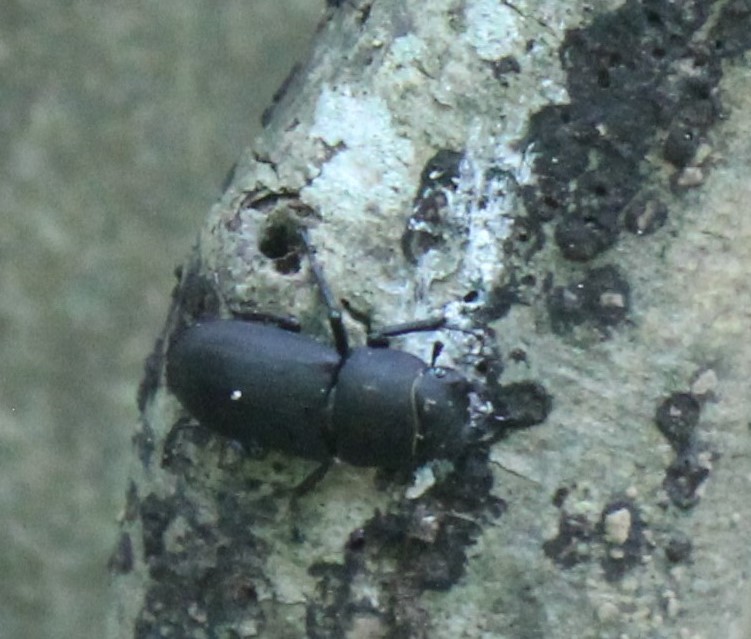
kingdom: Animalia
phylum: Arthropoda
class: Insecta
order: Coleoptera
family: Lucanidae
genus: Dorcus
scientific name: Dorcus parallelipipedus
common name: Lesser stag beetle
